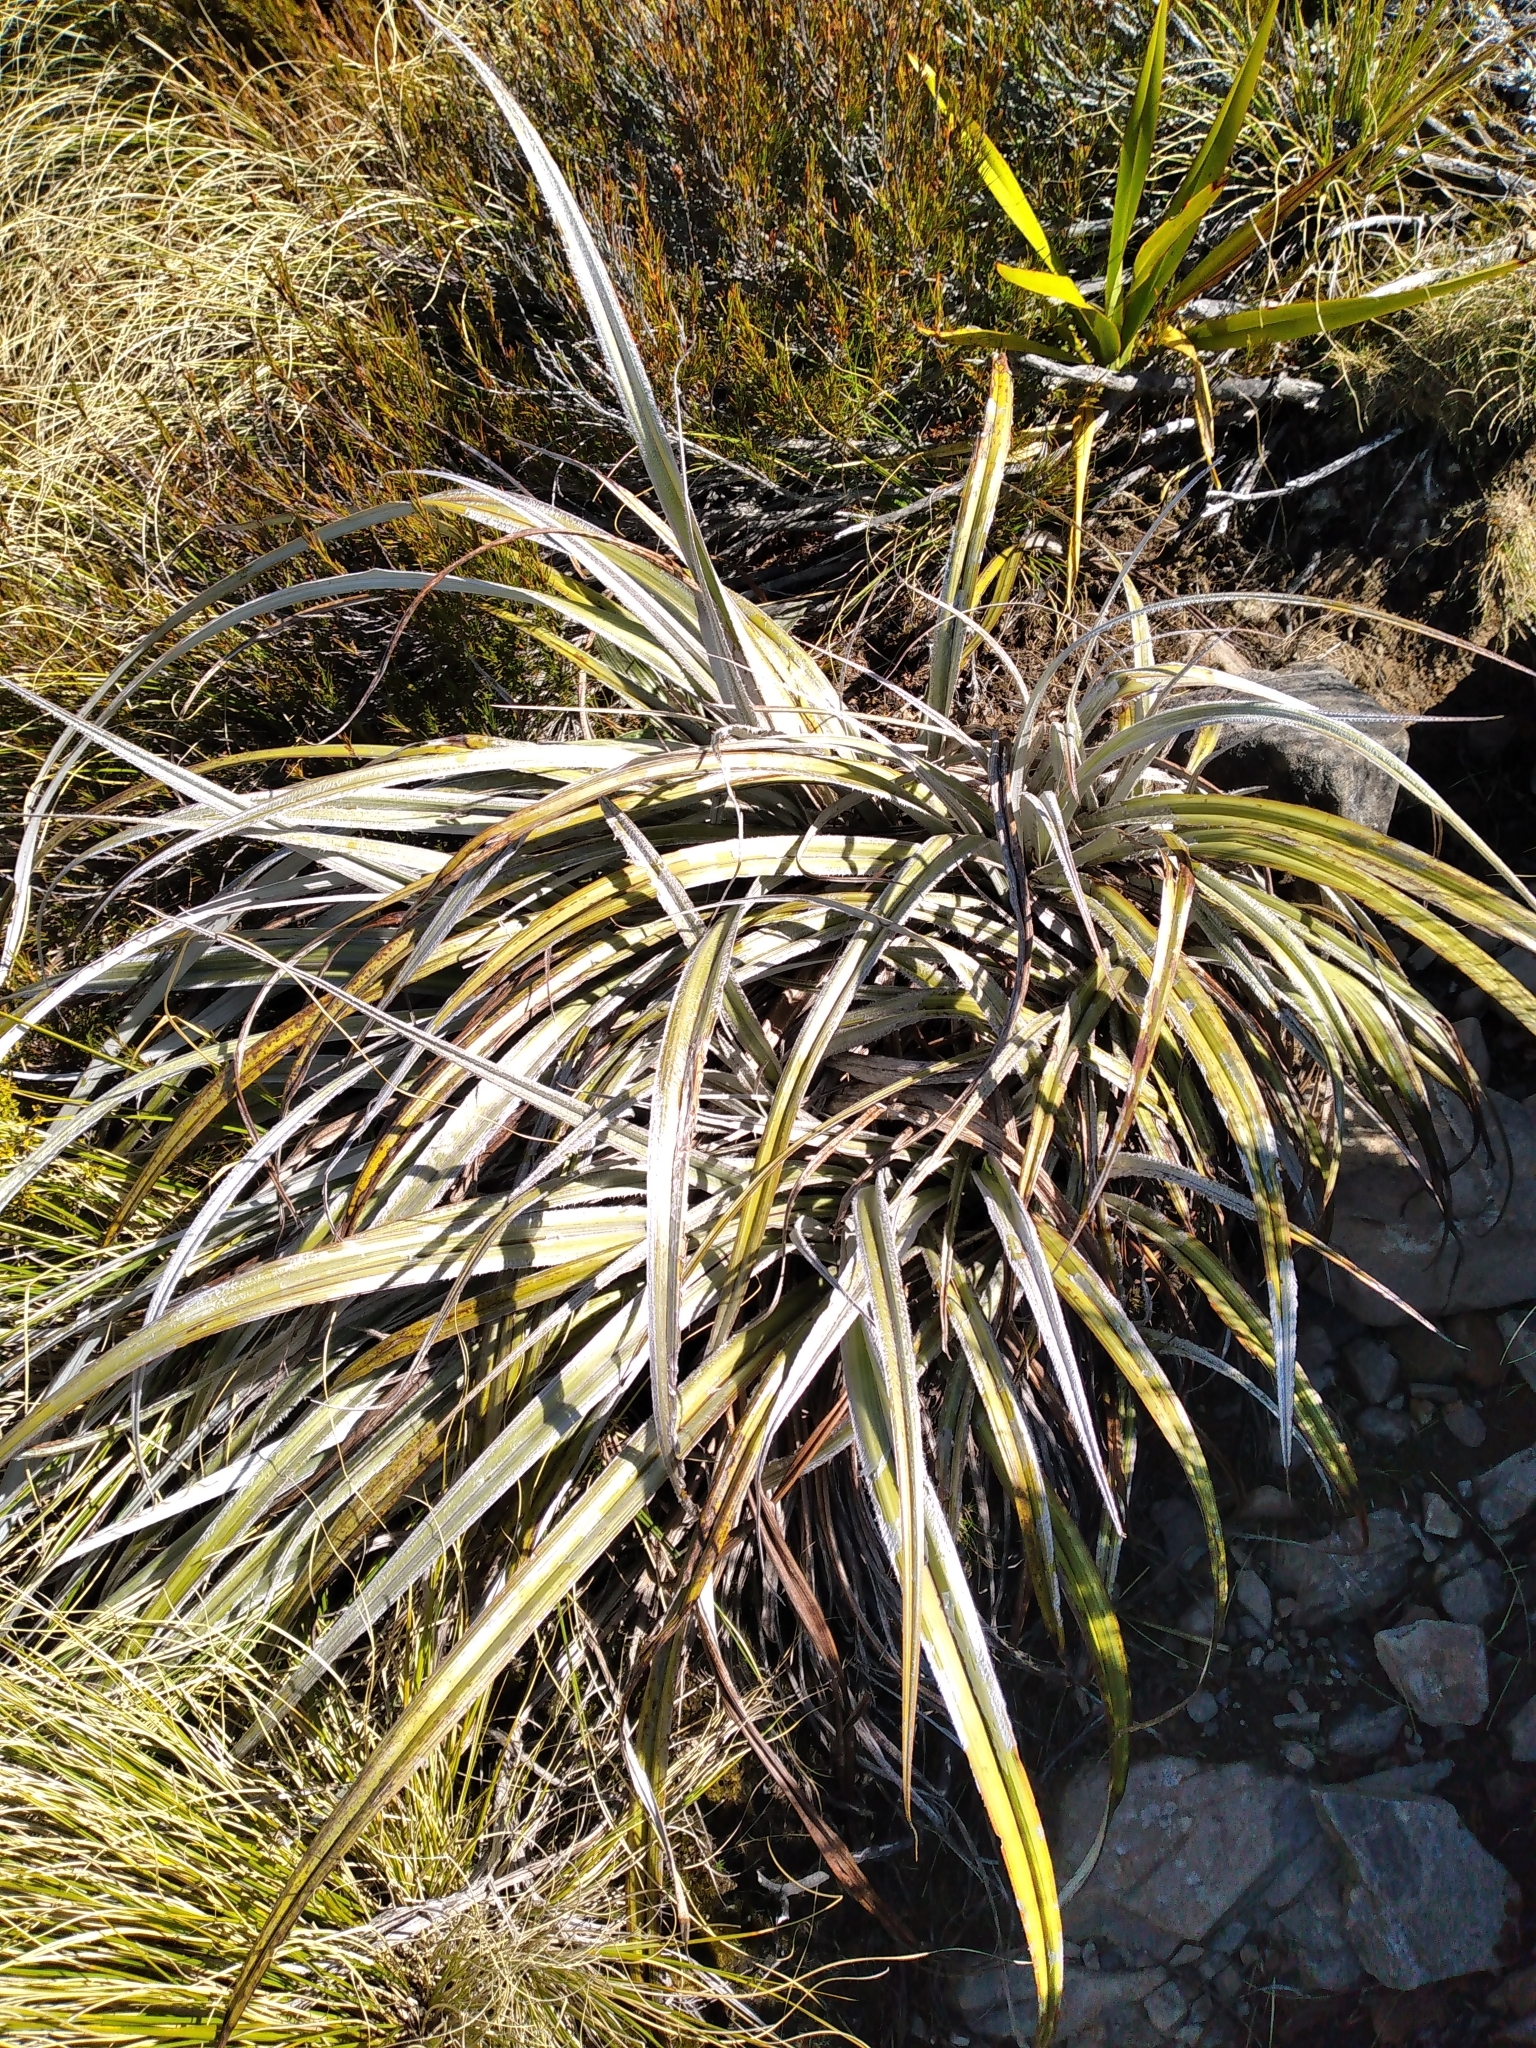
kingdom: Plantae
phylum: Tracheophyta
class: Liliopsida
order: Asparagales
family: Asteliaceae
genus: Astelia
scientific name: Astelia nervosa
